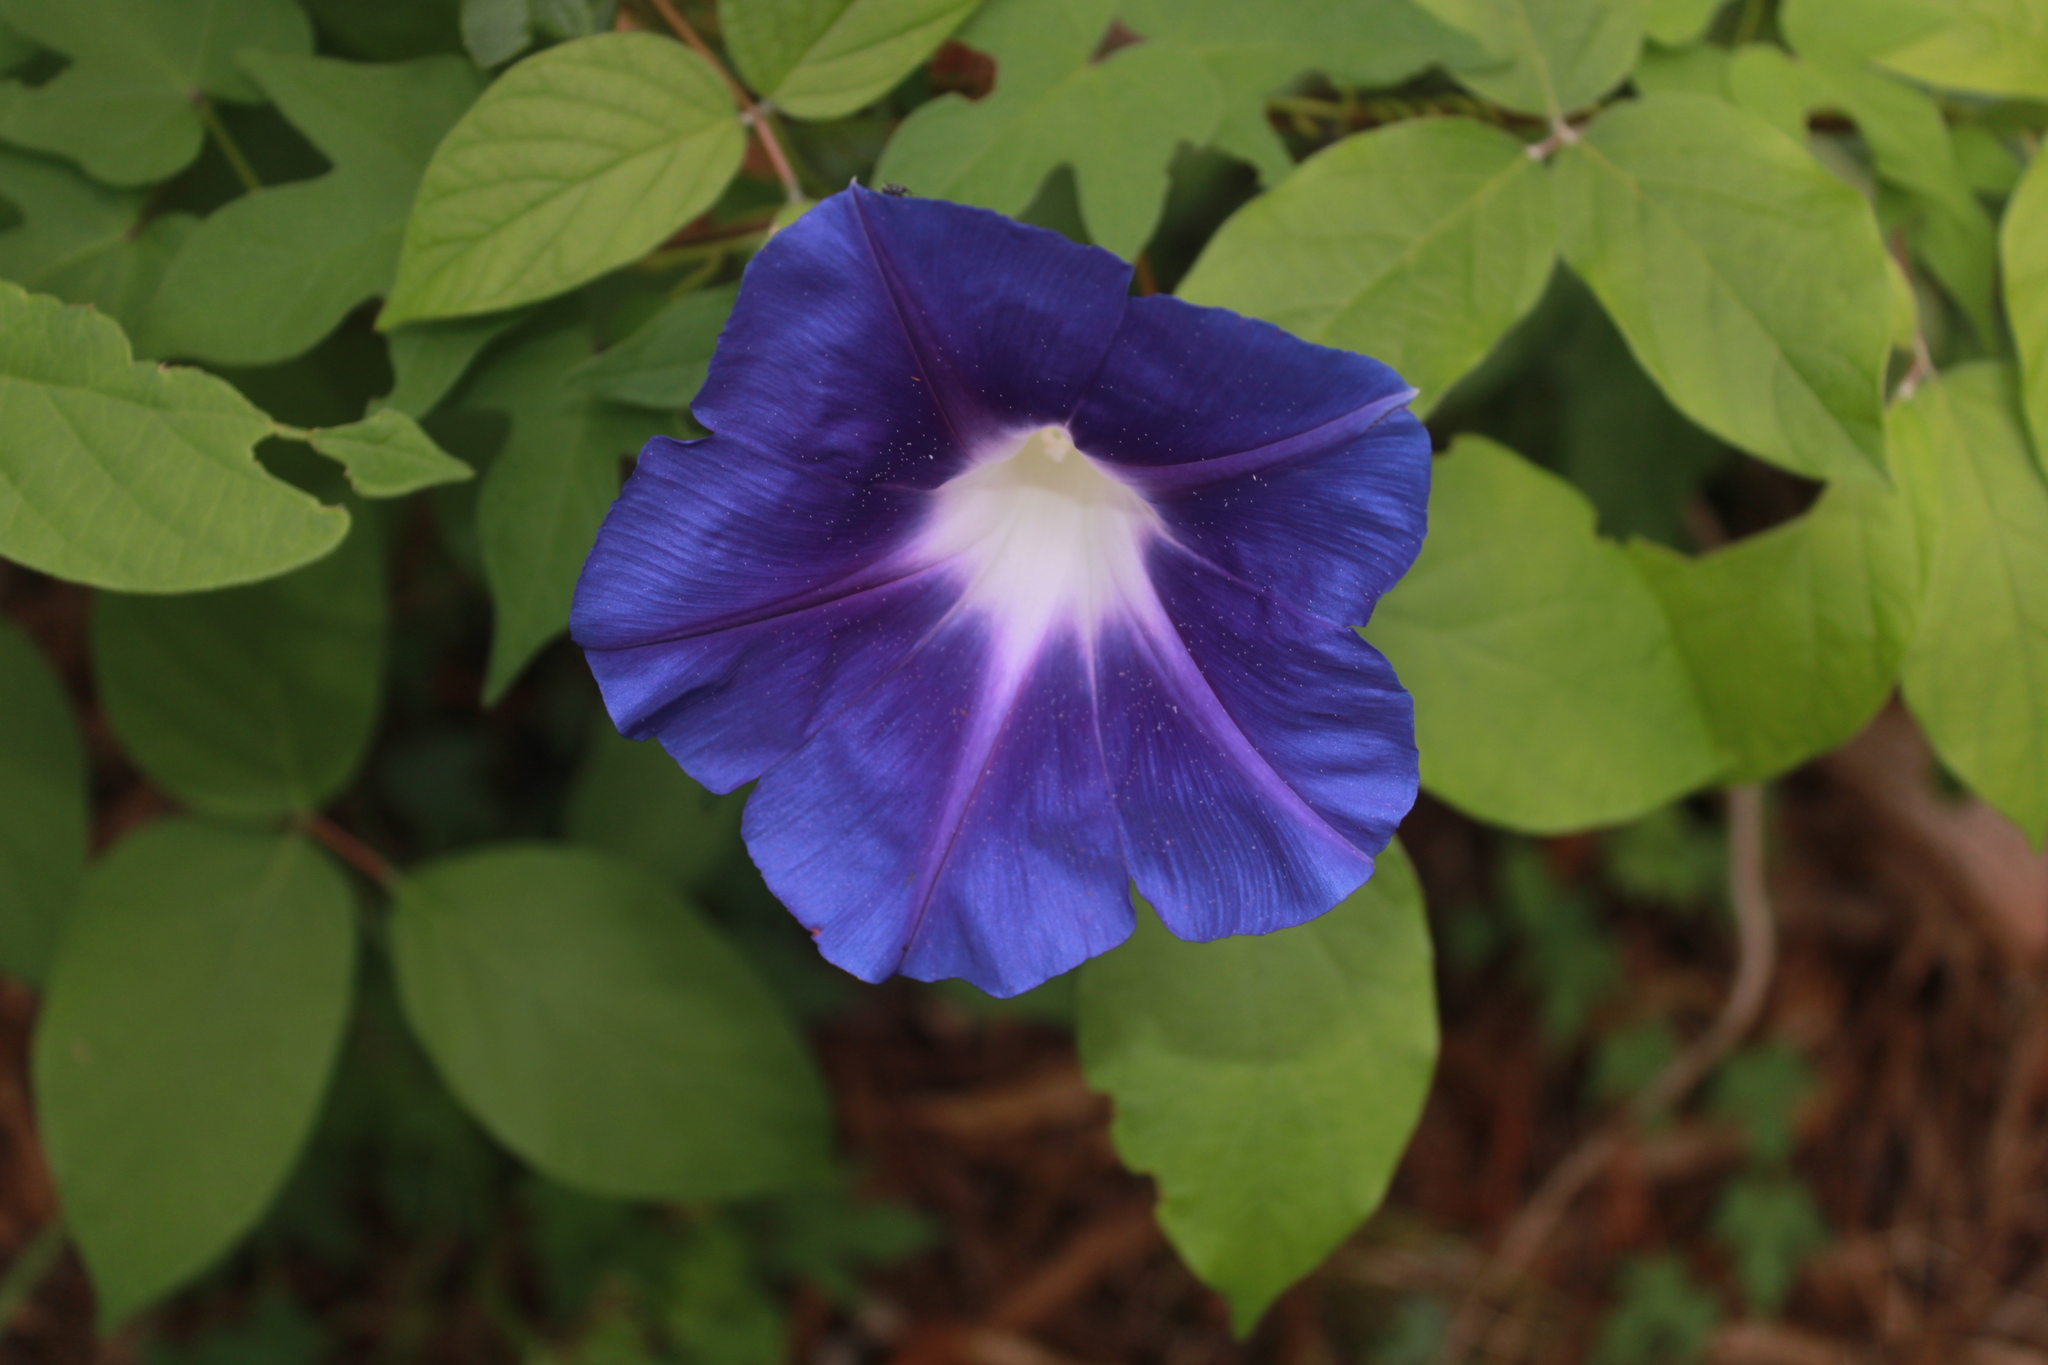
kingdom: Plantae
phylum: Tracheophyta
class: Magnoliopsida
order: Solanales
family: Convolvulaceae
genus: Ipomoea
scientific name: Ipomoea laeta
